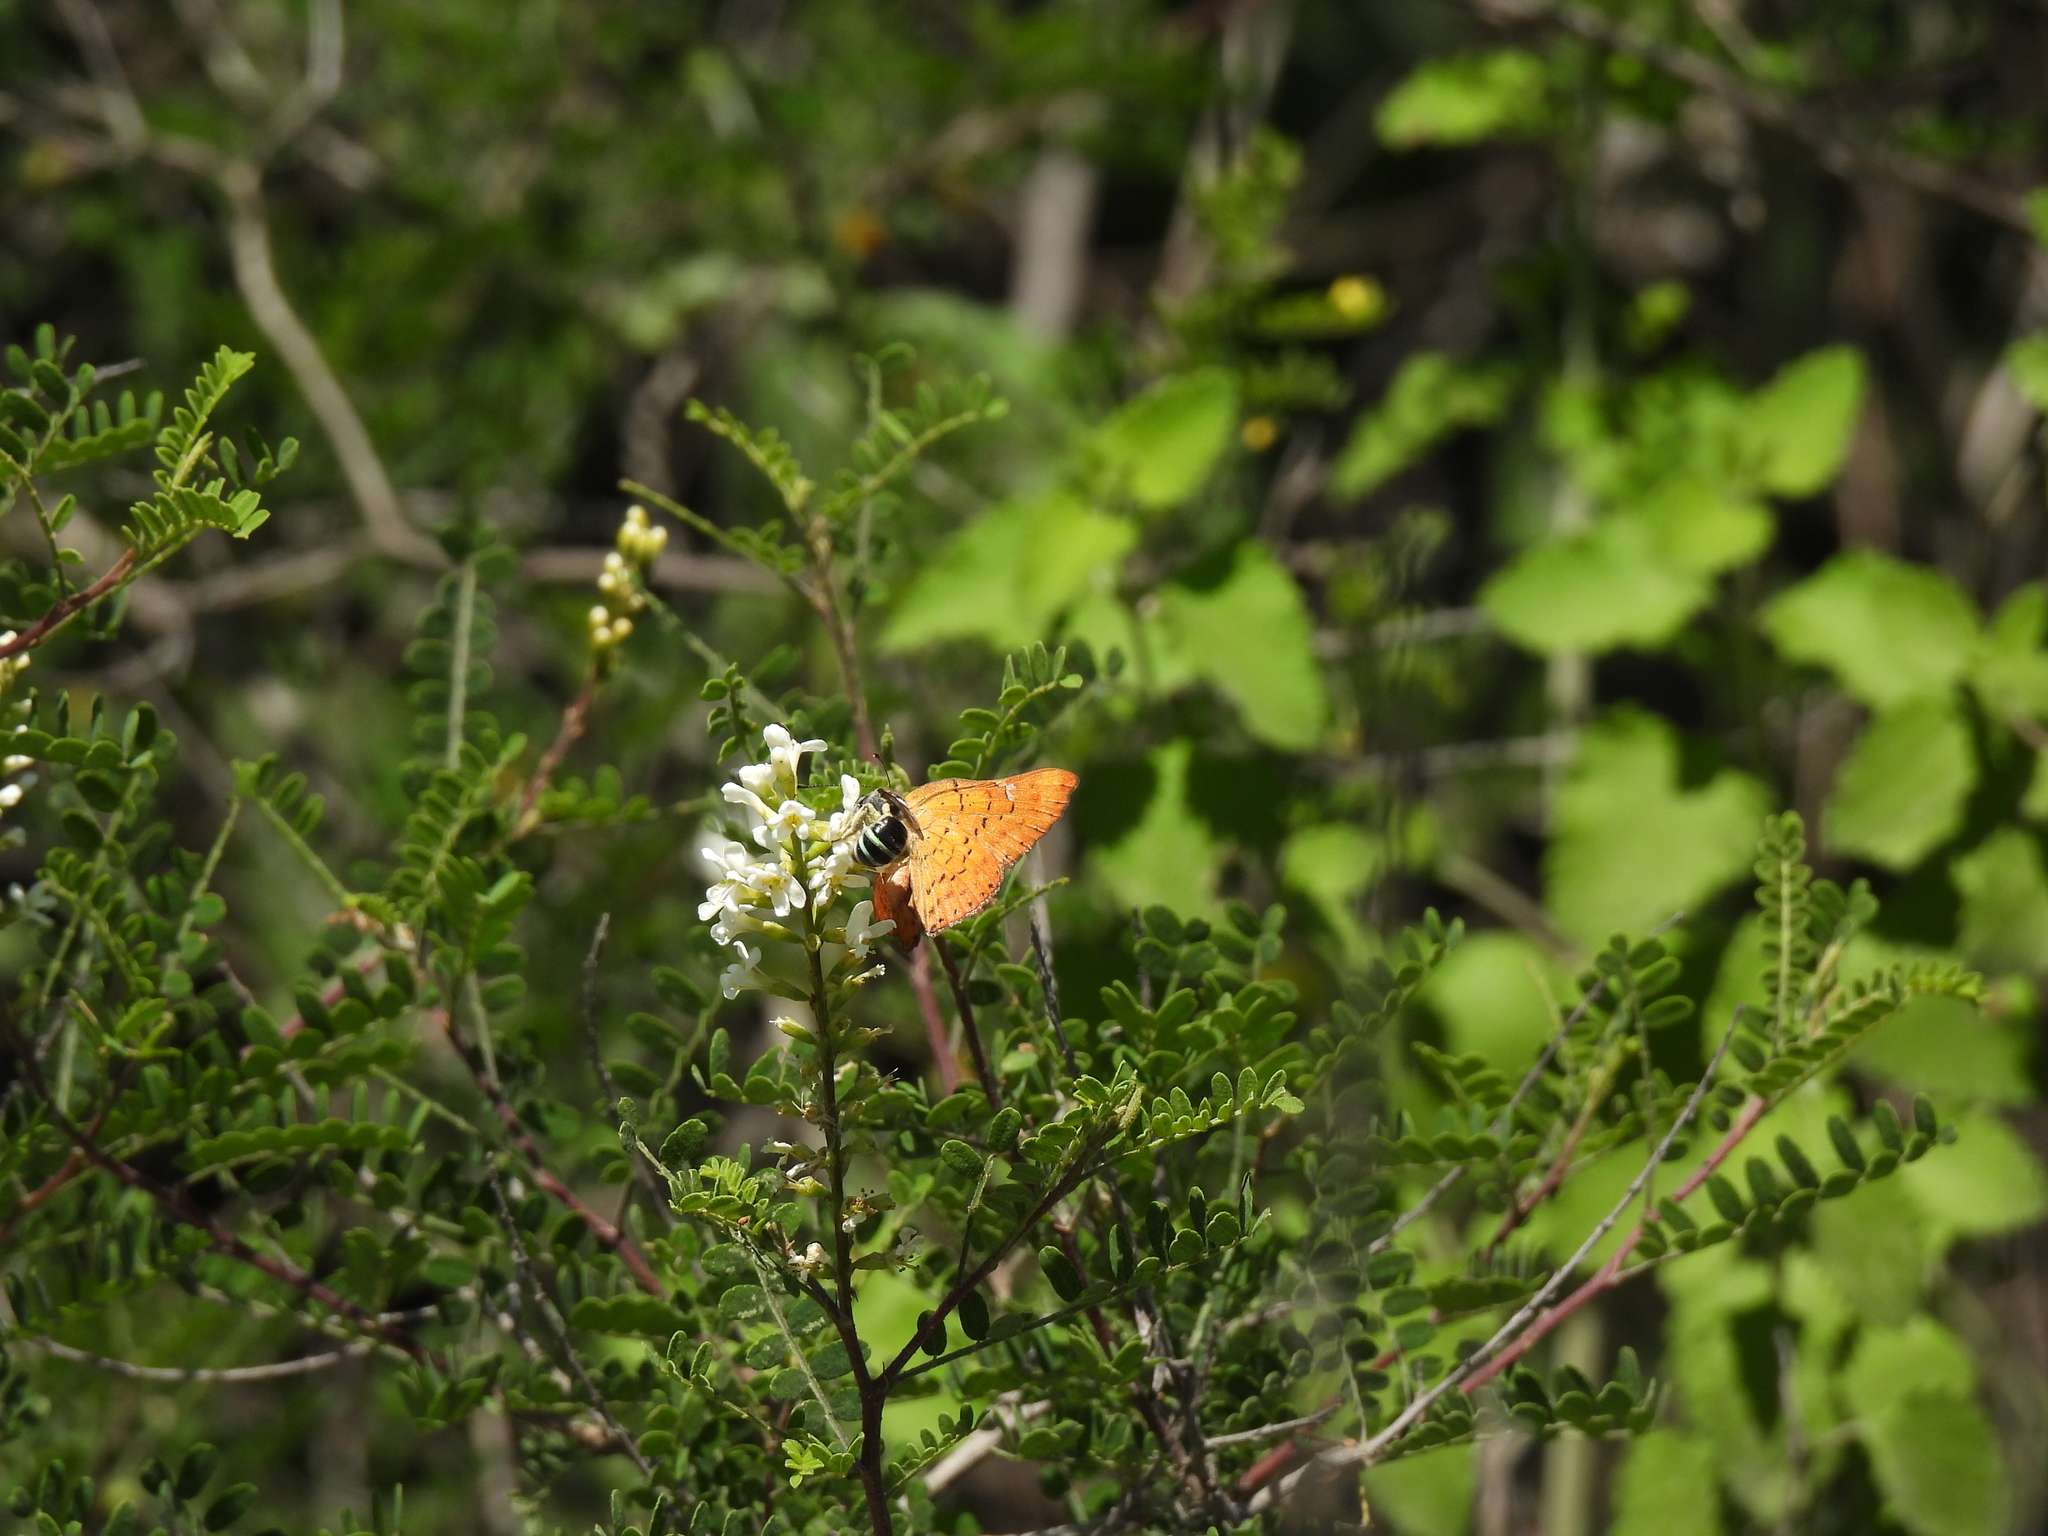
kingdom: Animalia
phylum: Arthropoda
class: Insecta
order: Lepidoptera
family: Riodinidae
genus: Curvie
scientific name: Curvie emesia
